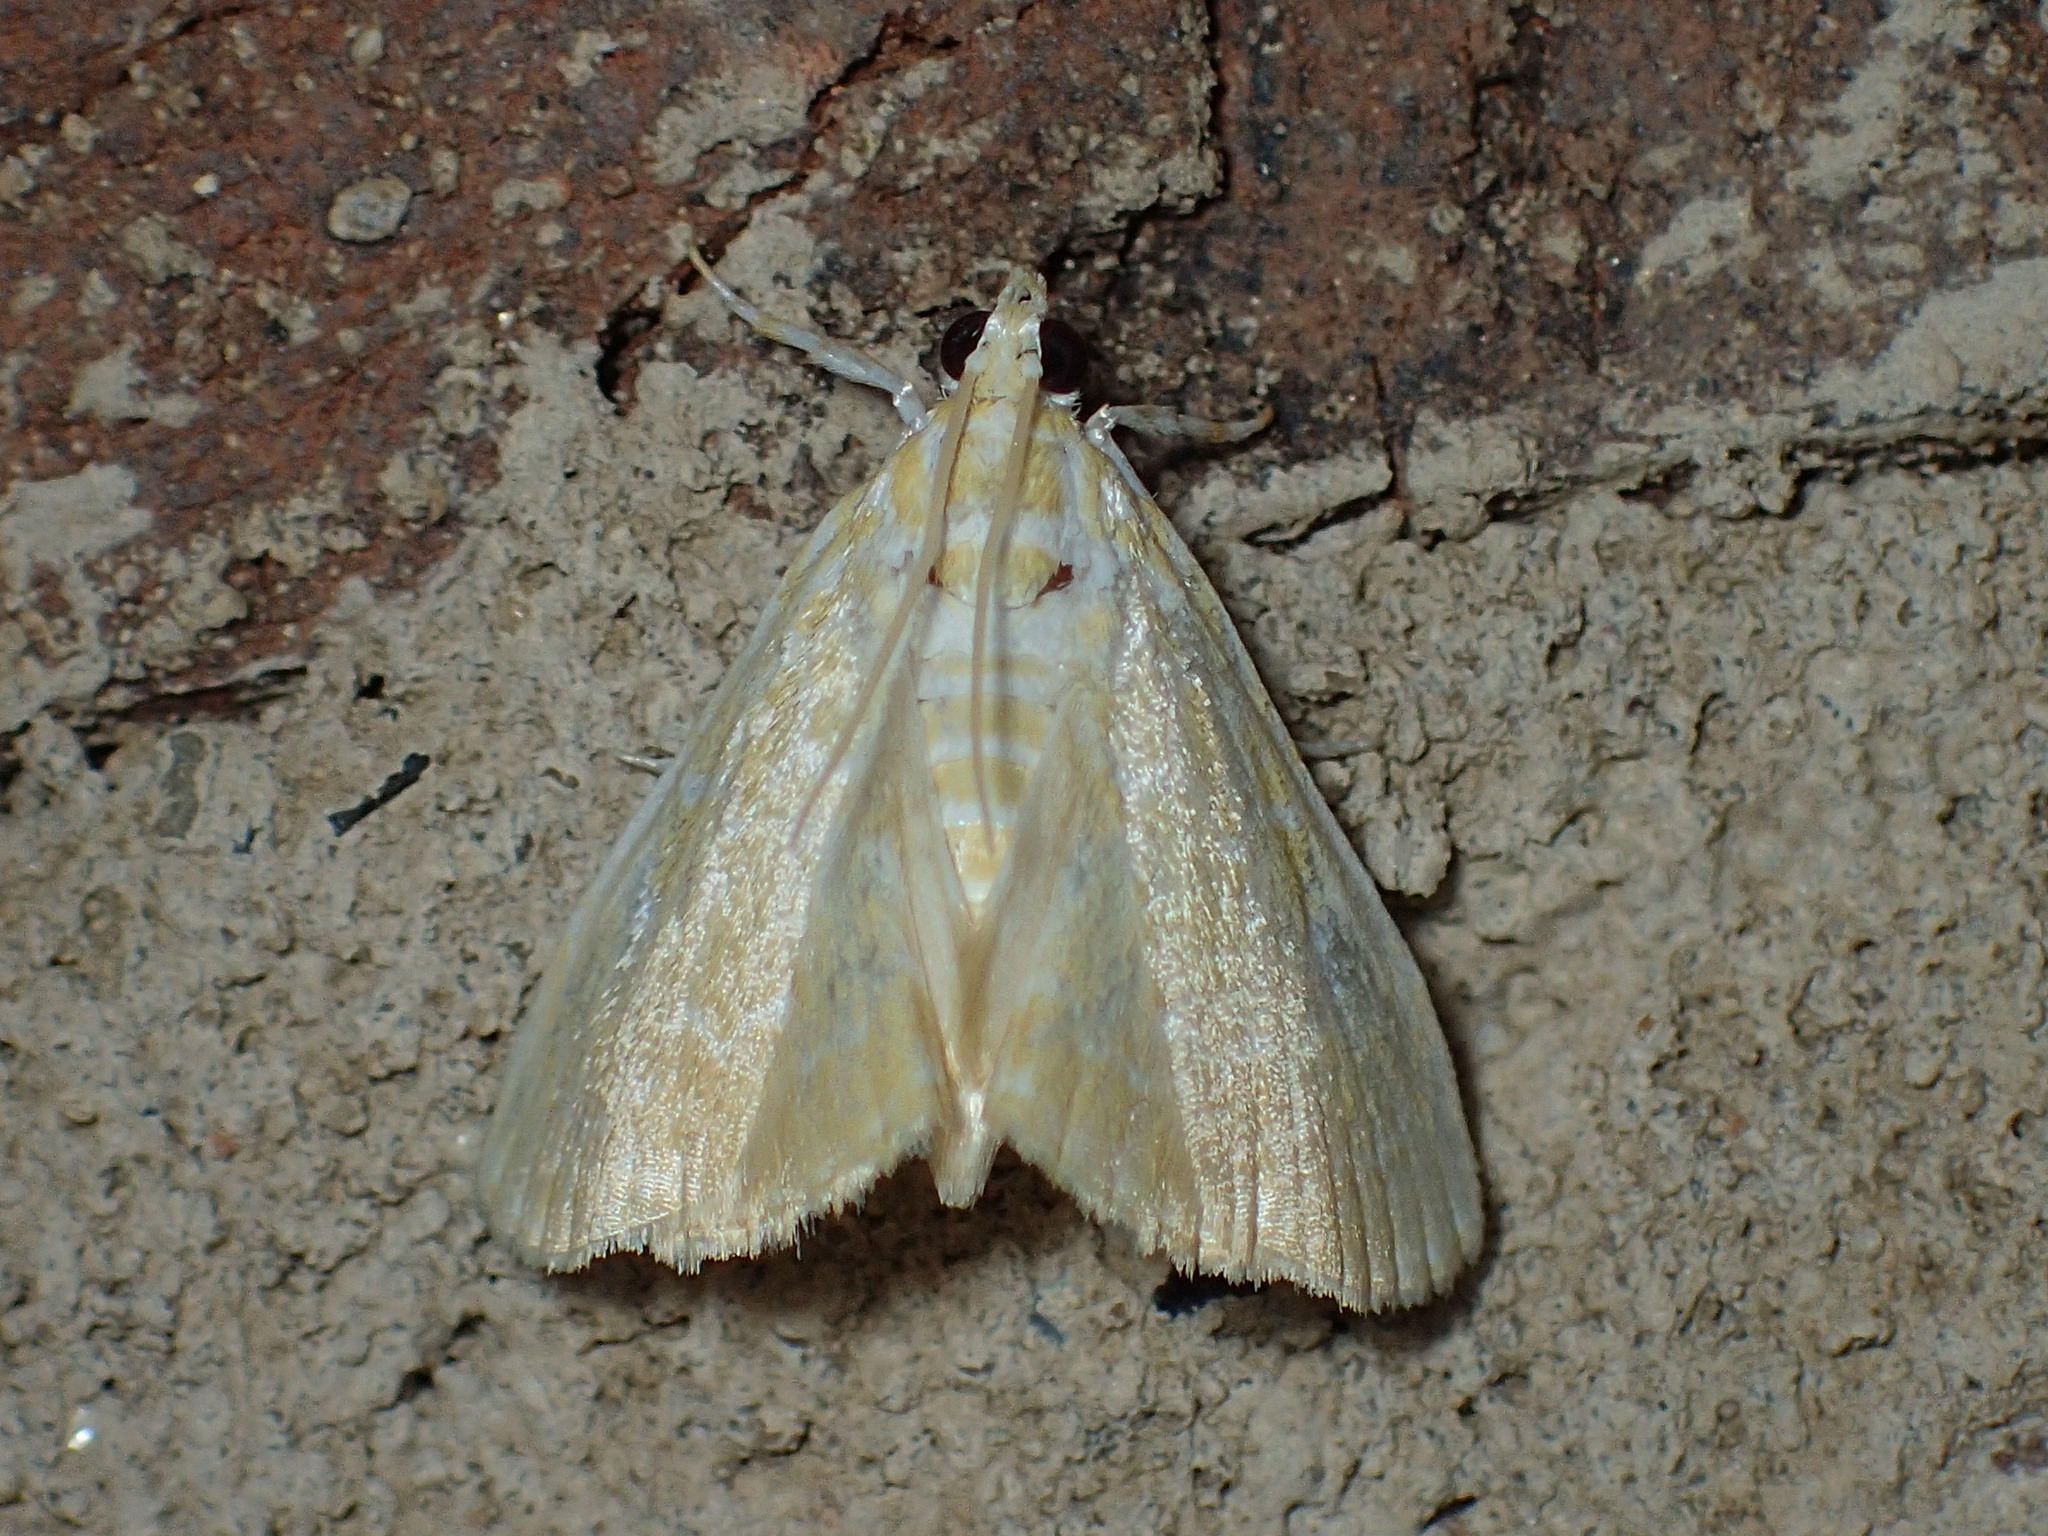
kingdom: Animalia
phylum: Arthropoda
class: Insecta
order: Lepidoptera
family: Crambidae
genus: Glaphyria
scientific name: Glaphyria glaphyralis
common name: Common glaphyria moth
